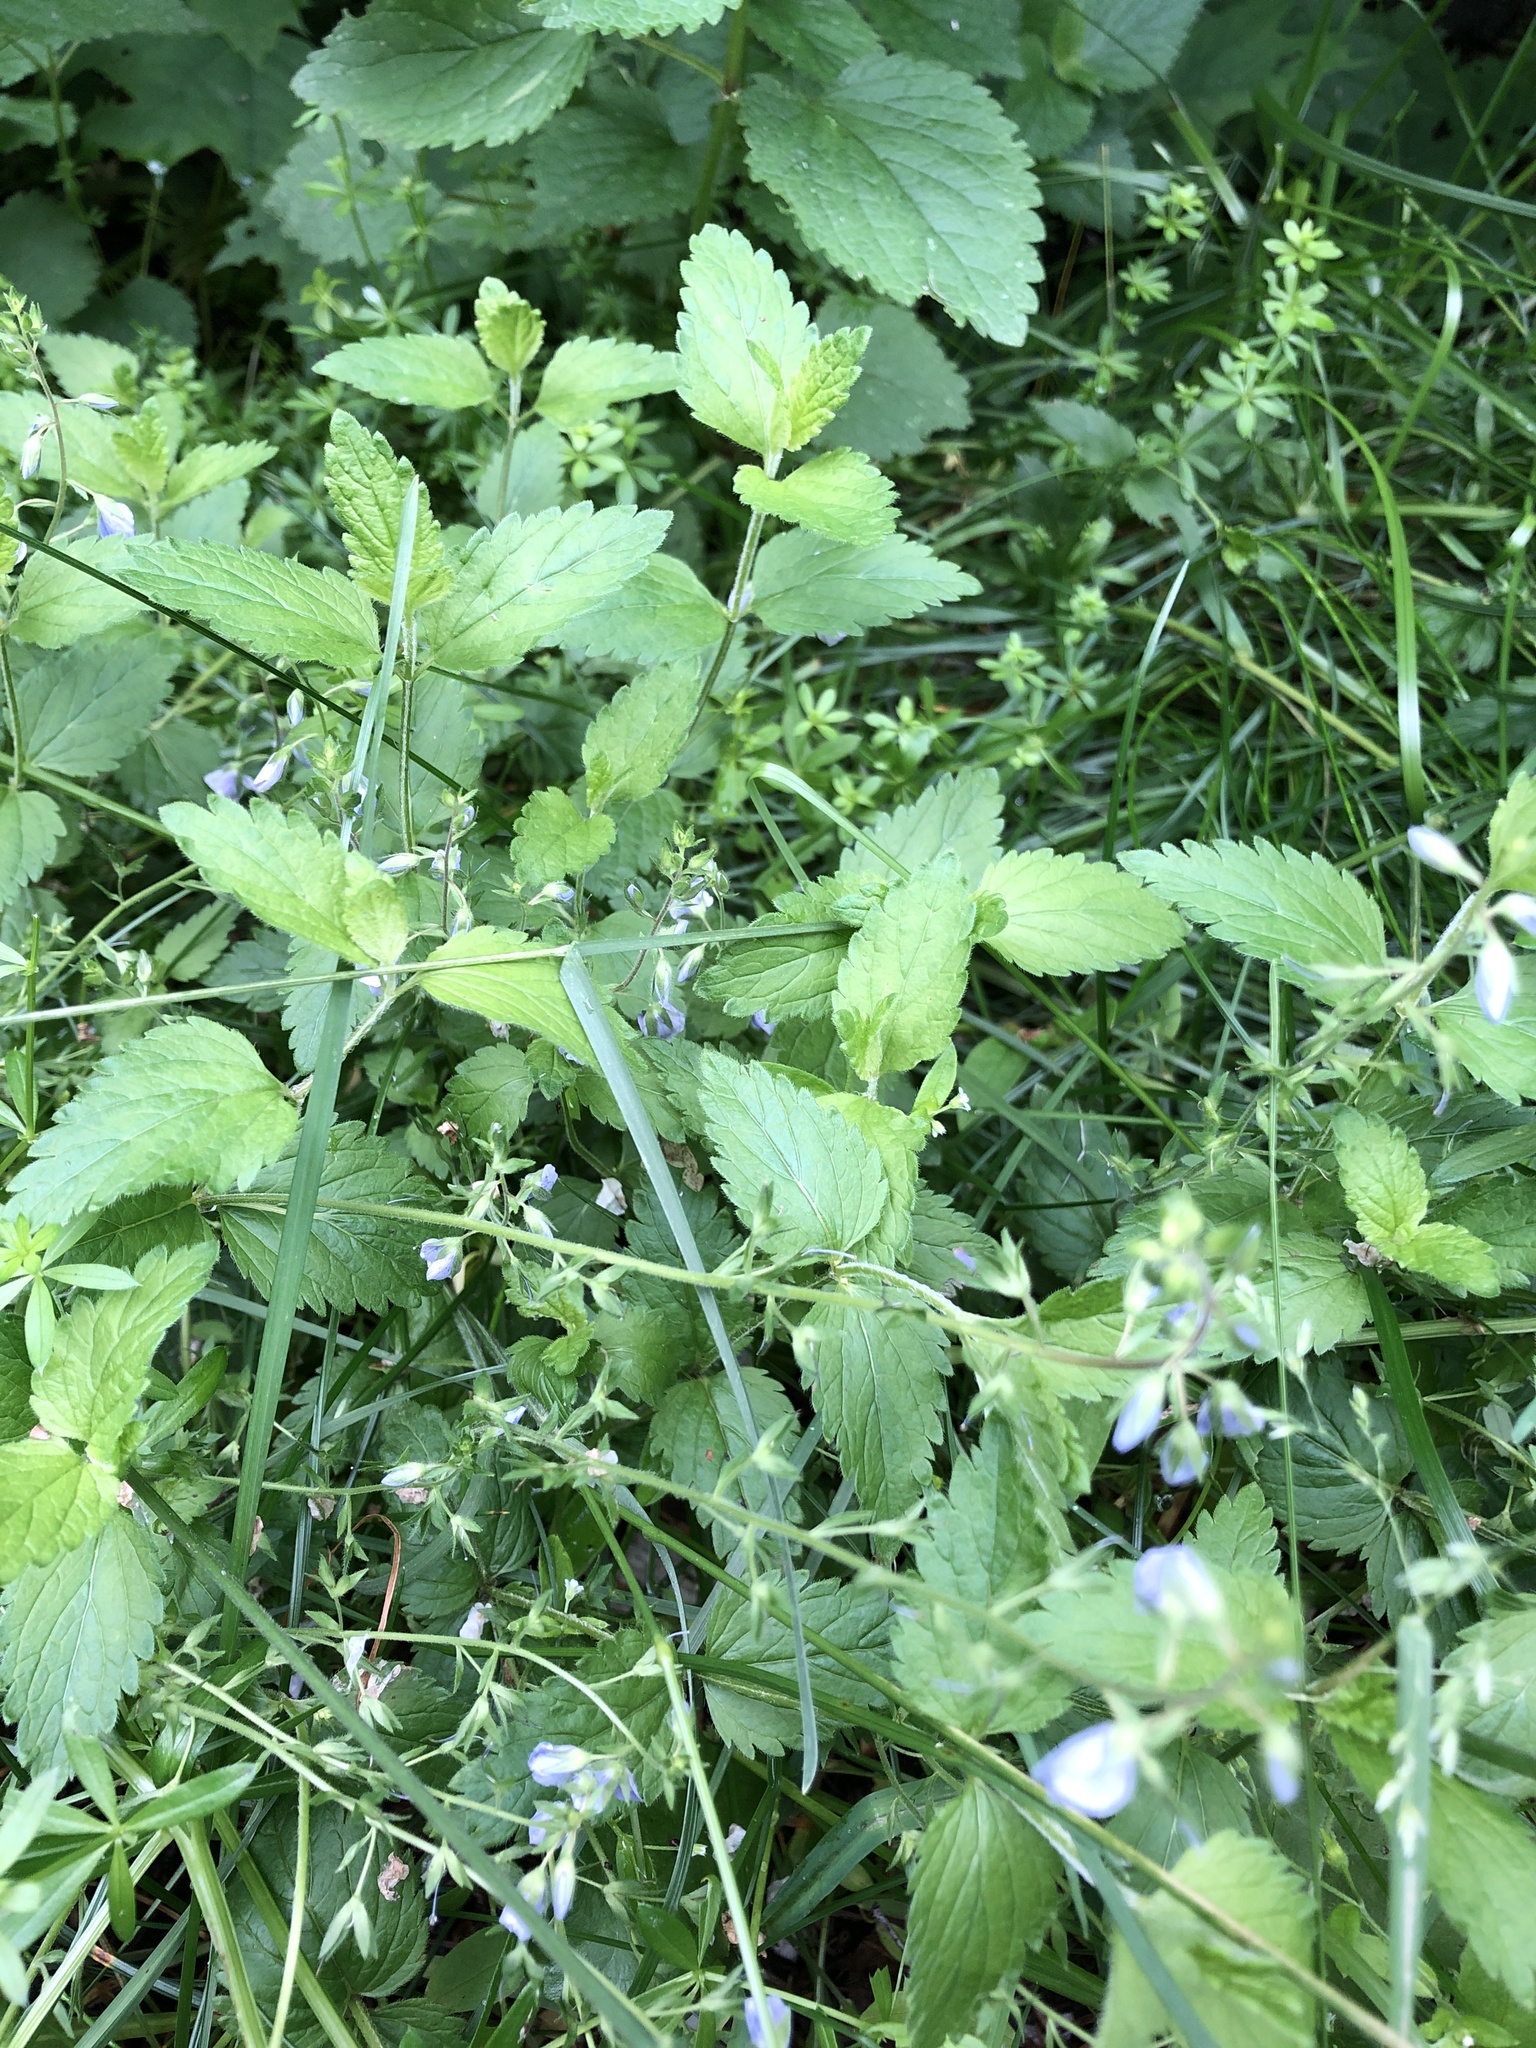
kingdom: Plantae
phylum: Tracheophyta
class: Magnoliopsida
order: Lamiales
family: Plantaginaceae
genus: Veronica
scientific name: Veronica chamaedrys
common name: Germander speedwell
